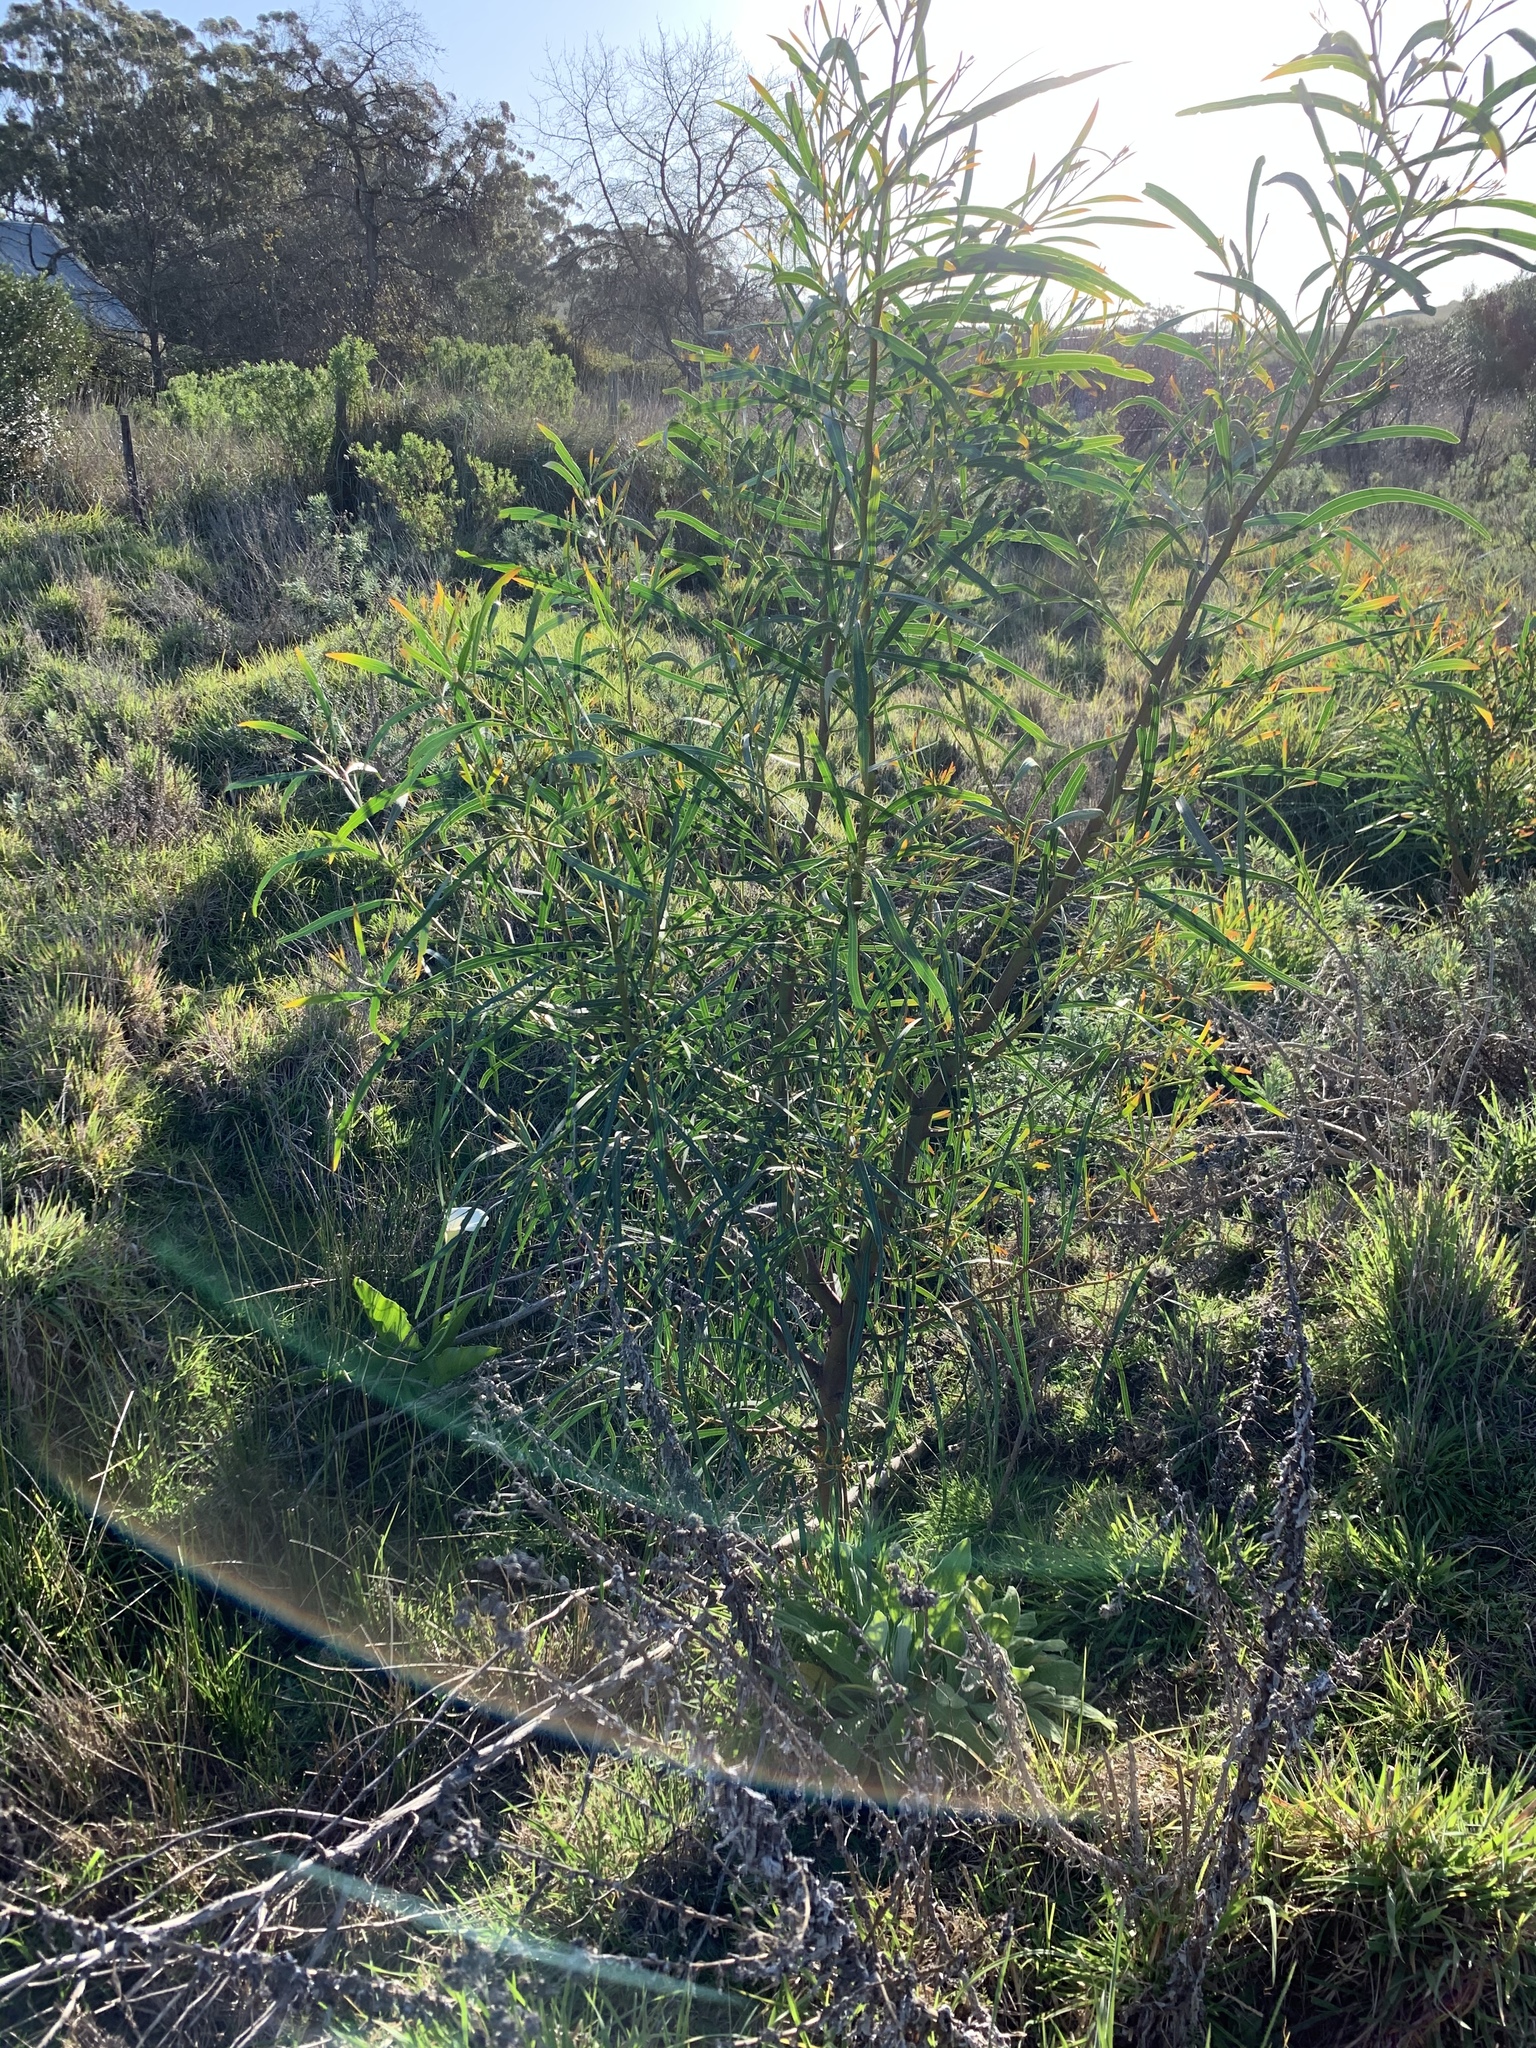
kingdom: Plantae
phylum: Tracheophyta
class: Magnoliopsida
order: Fabales
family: Fabaceae
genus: Acacia
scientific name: Acacia saligna
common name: Orange wattle
